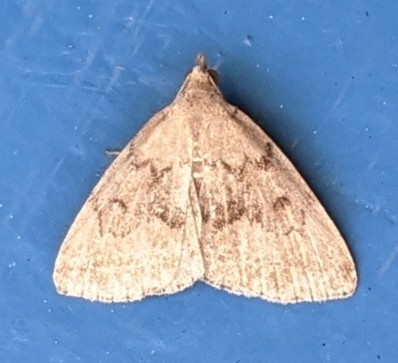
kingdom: Animalia
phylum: Arthropoda
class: Insecta
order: Lepidoptera
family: Erebidae
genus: Zanclognatha
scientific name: Zanclognatha dentata
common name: Toothed fan-foot
